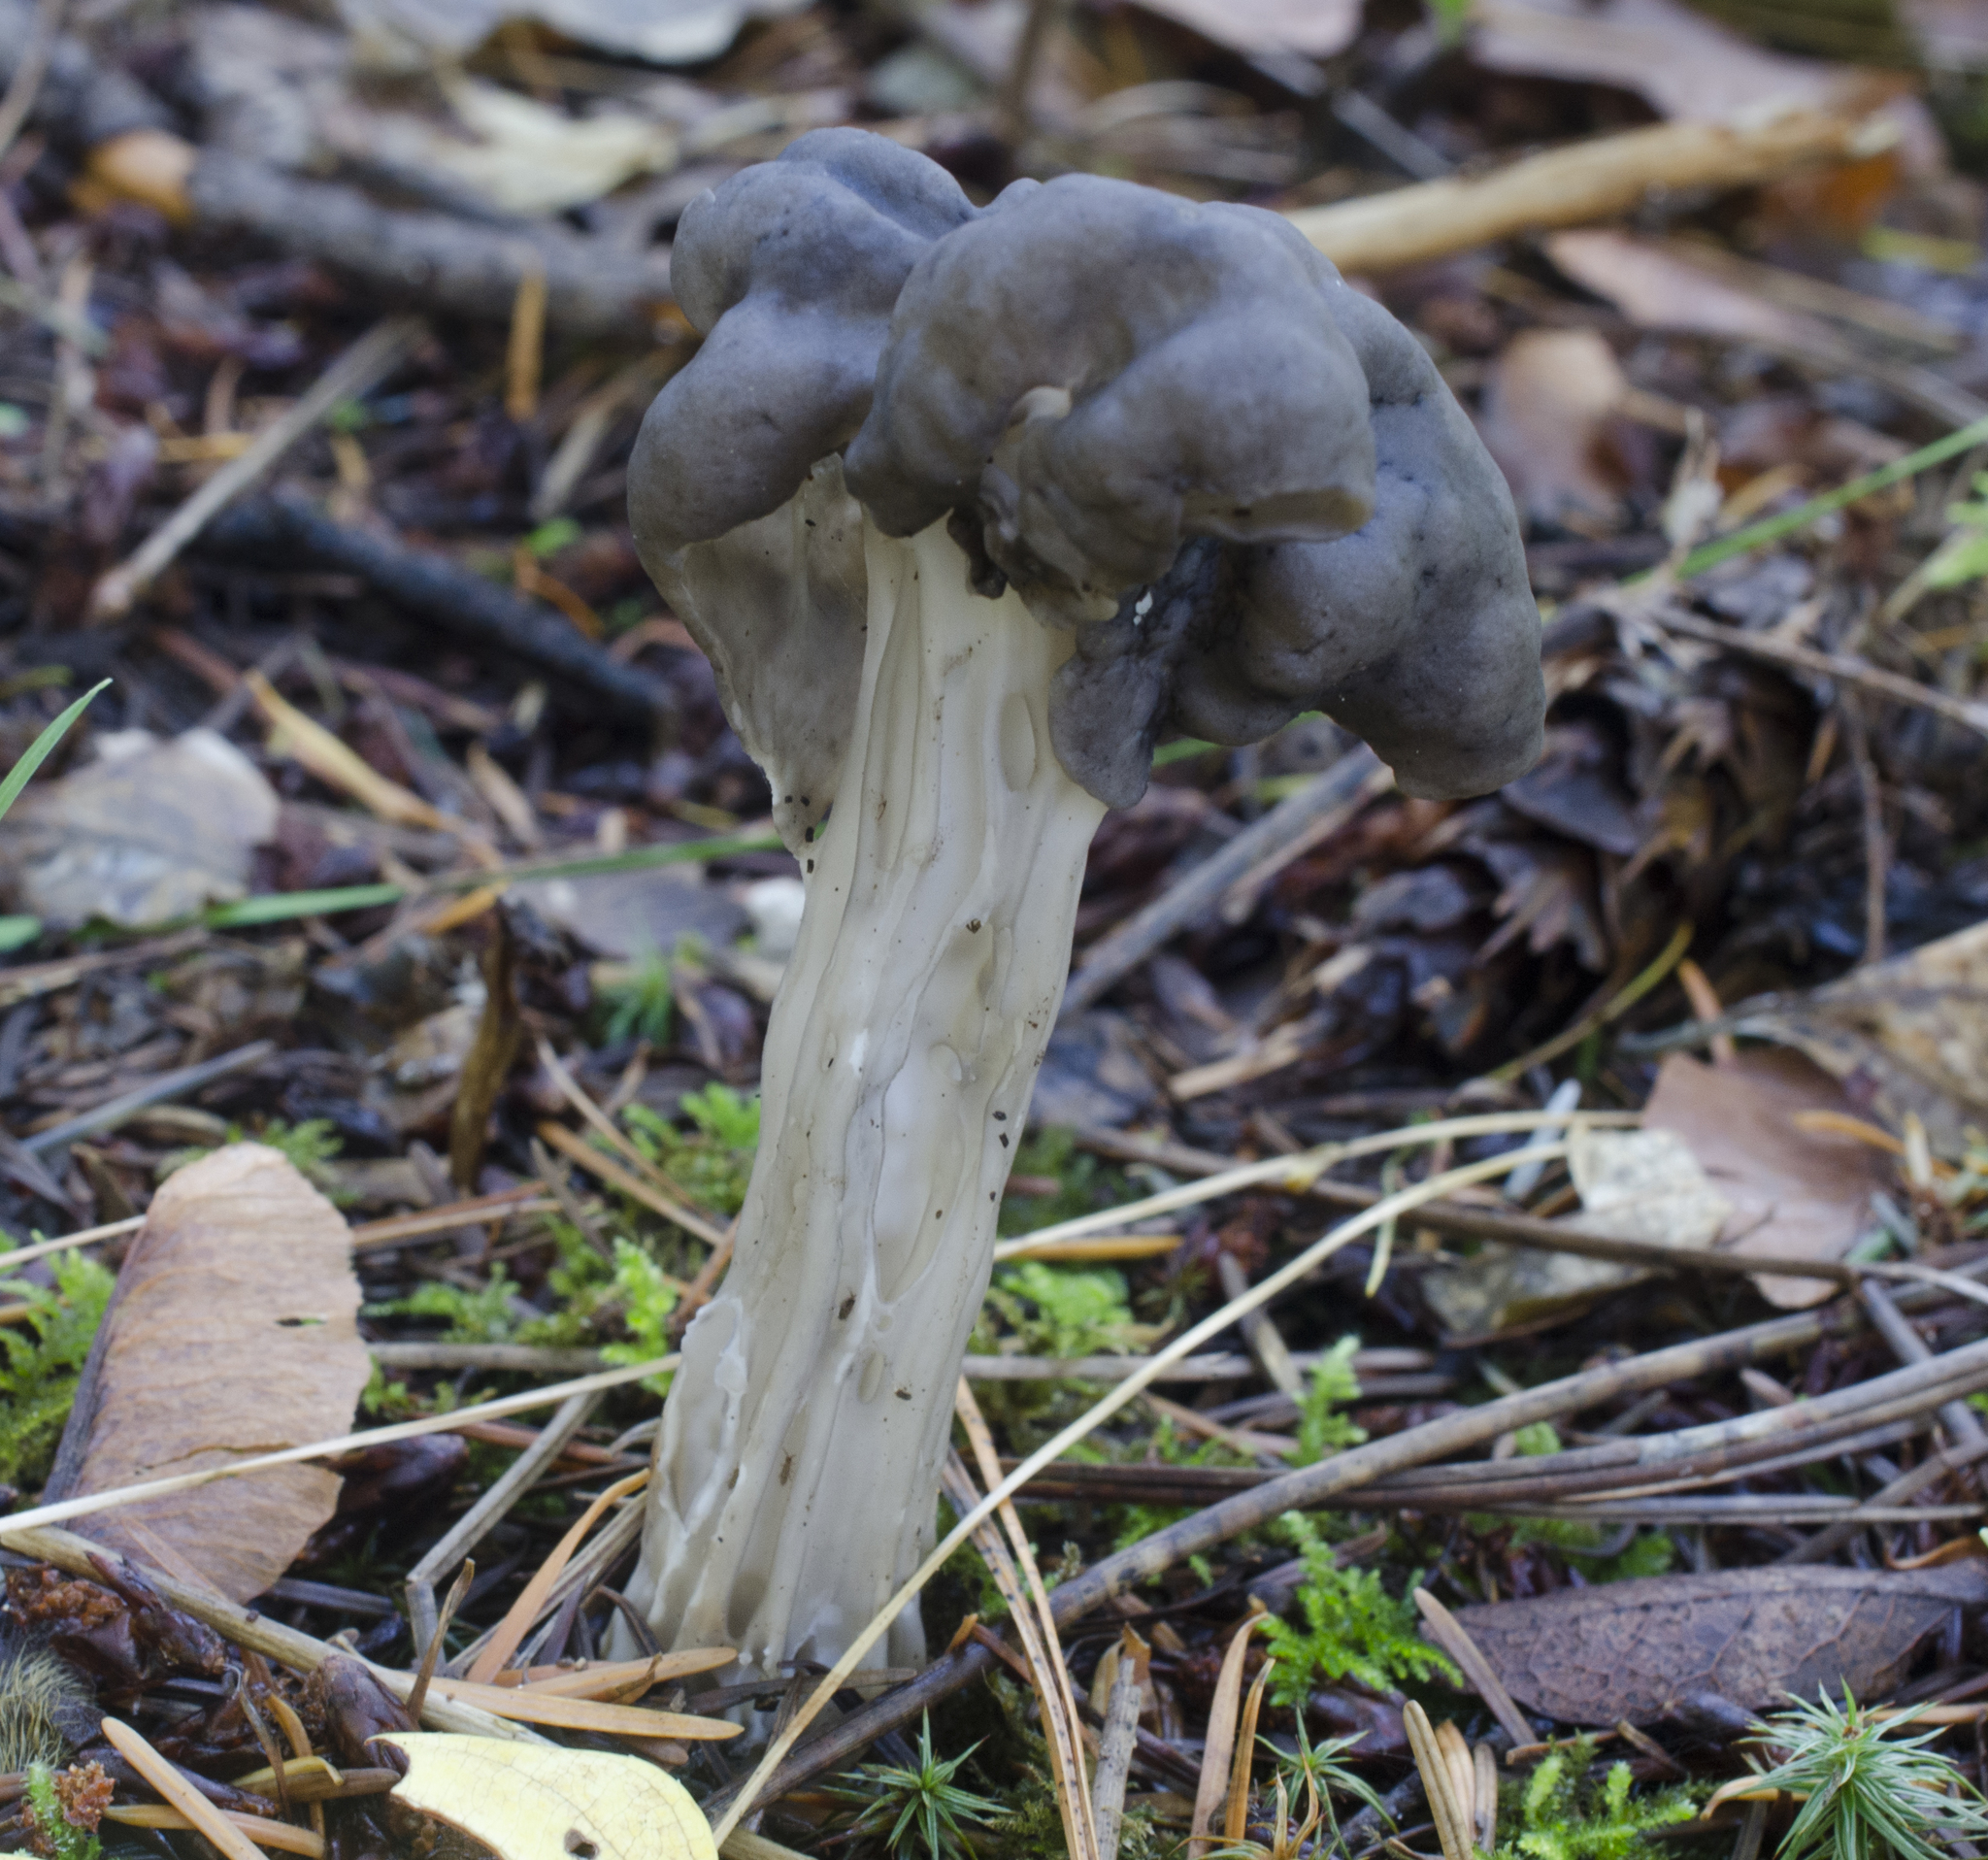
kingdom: Fungi
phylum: Ascomycota
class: Pezizomycetes
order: Pezizales
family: Helvellaceae
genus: Helvella
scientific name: Helvella
